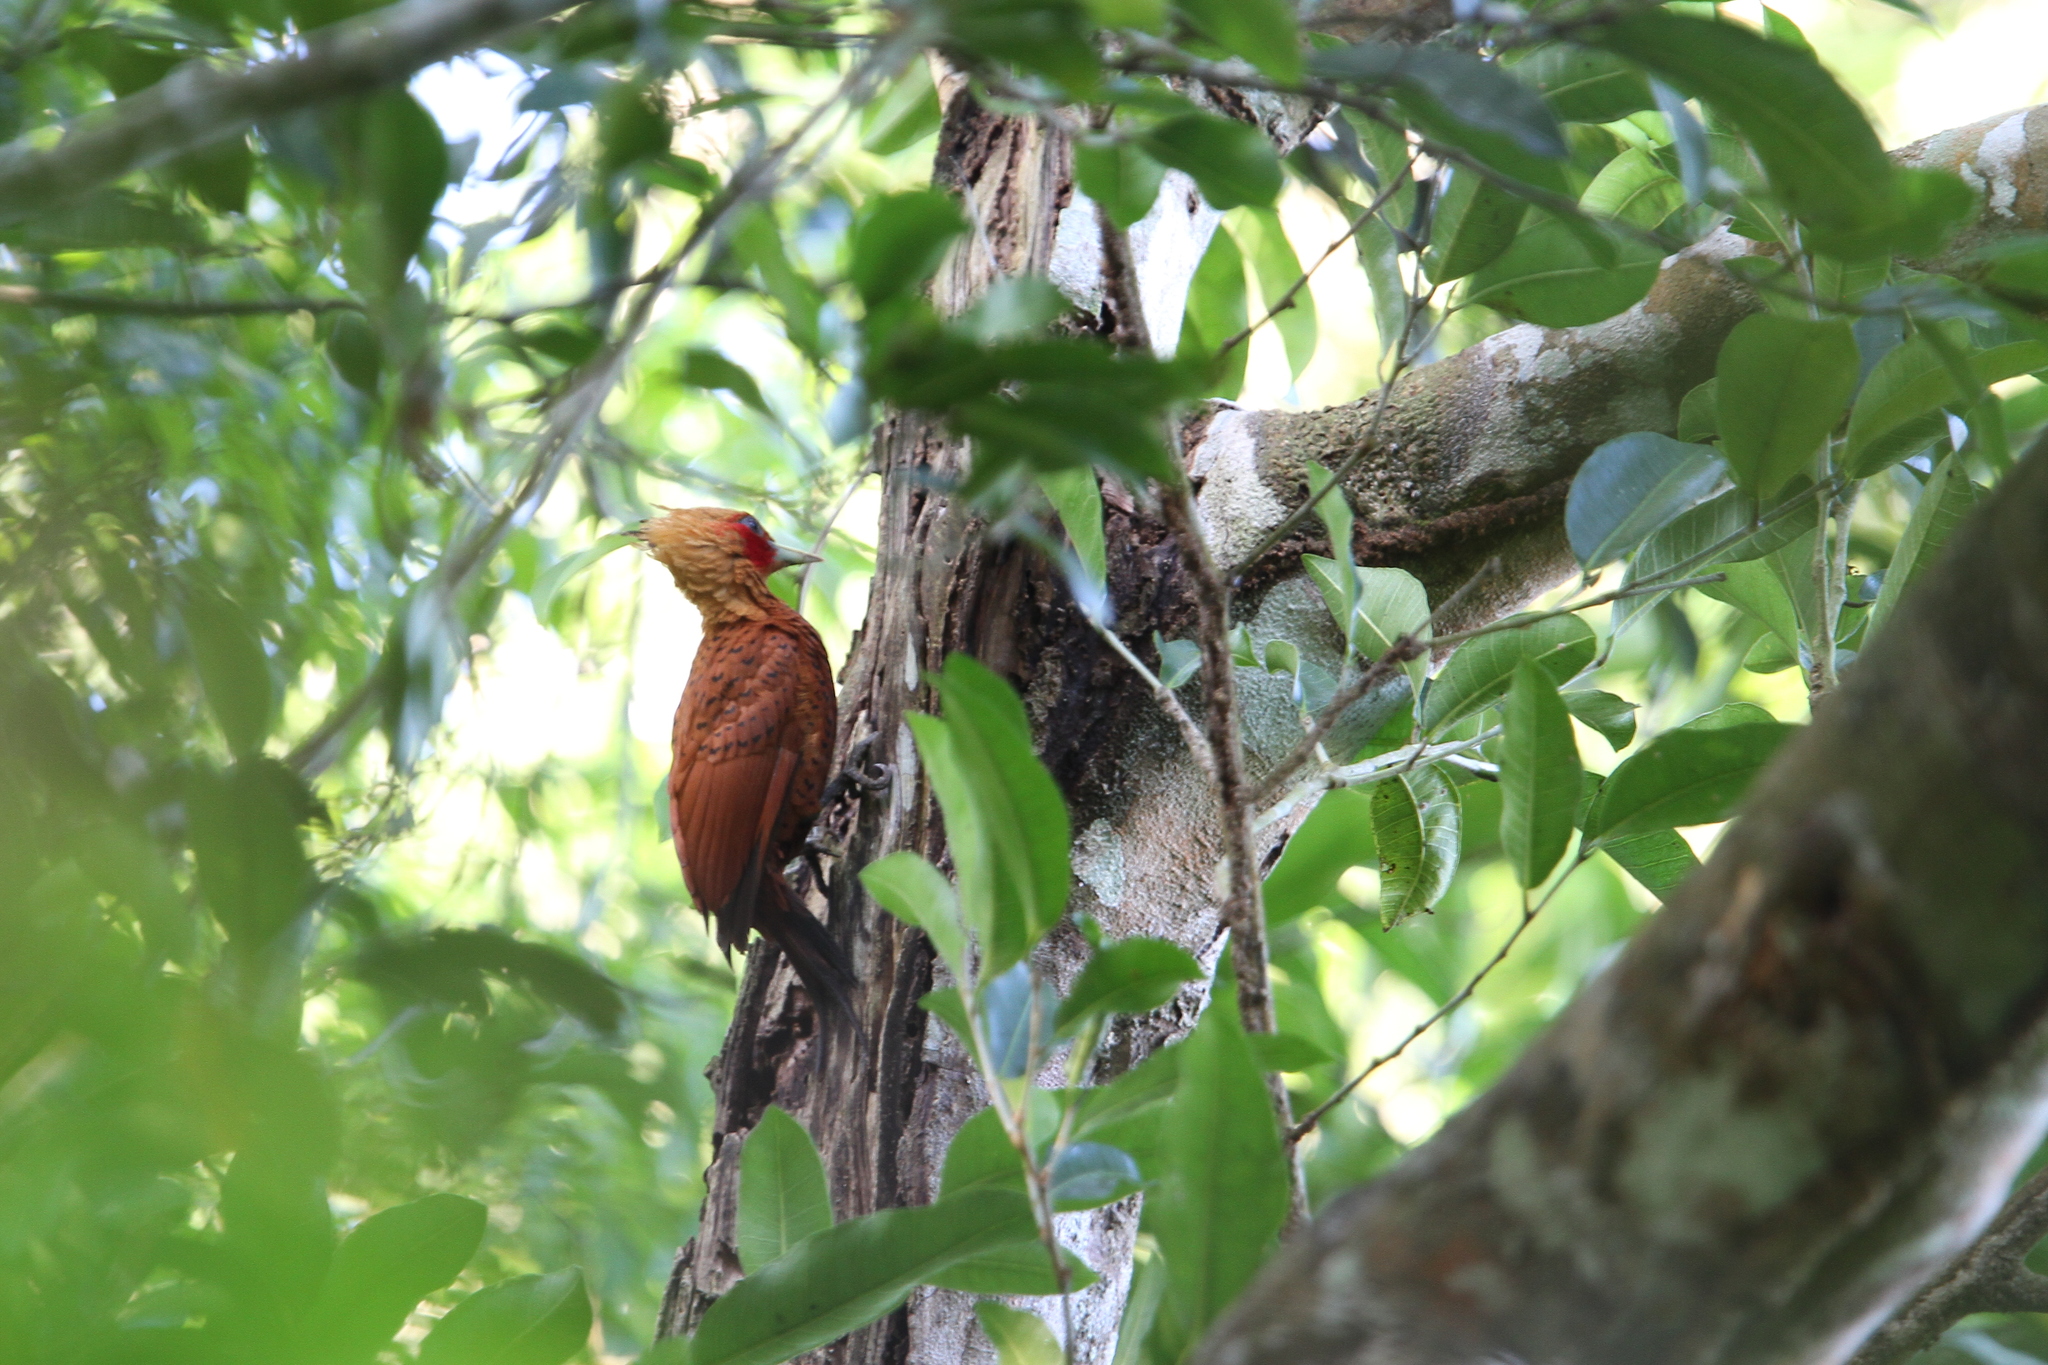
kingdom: Animalia
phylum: Chordata
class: Aves
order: Piciformes
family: Picidae
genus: Celeus
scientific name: Celeus castaneus
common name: Chestnut-colored woodpecker
